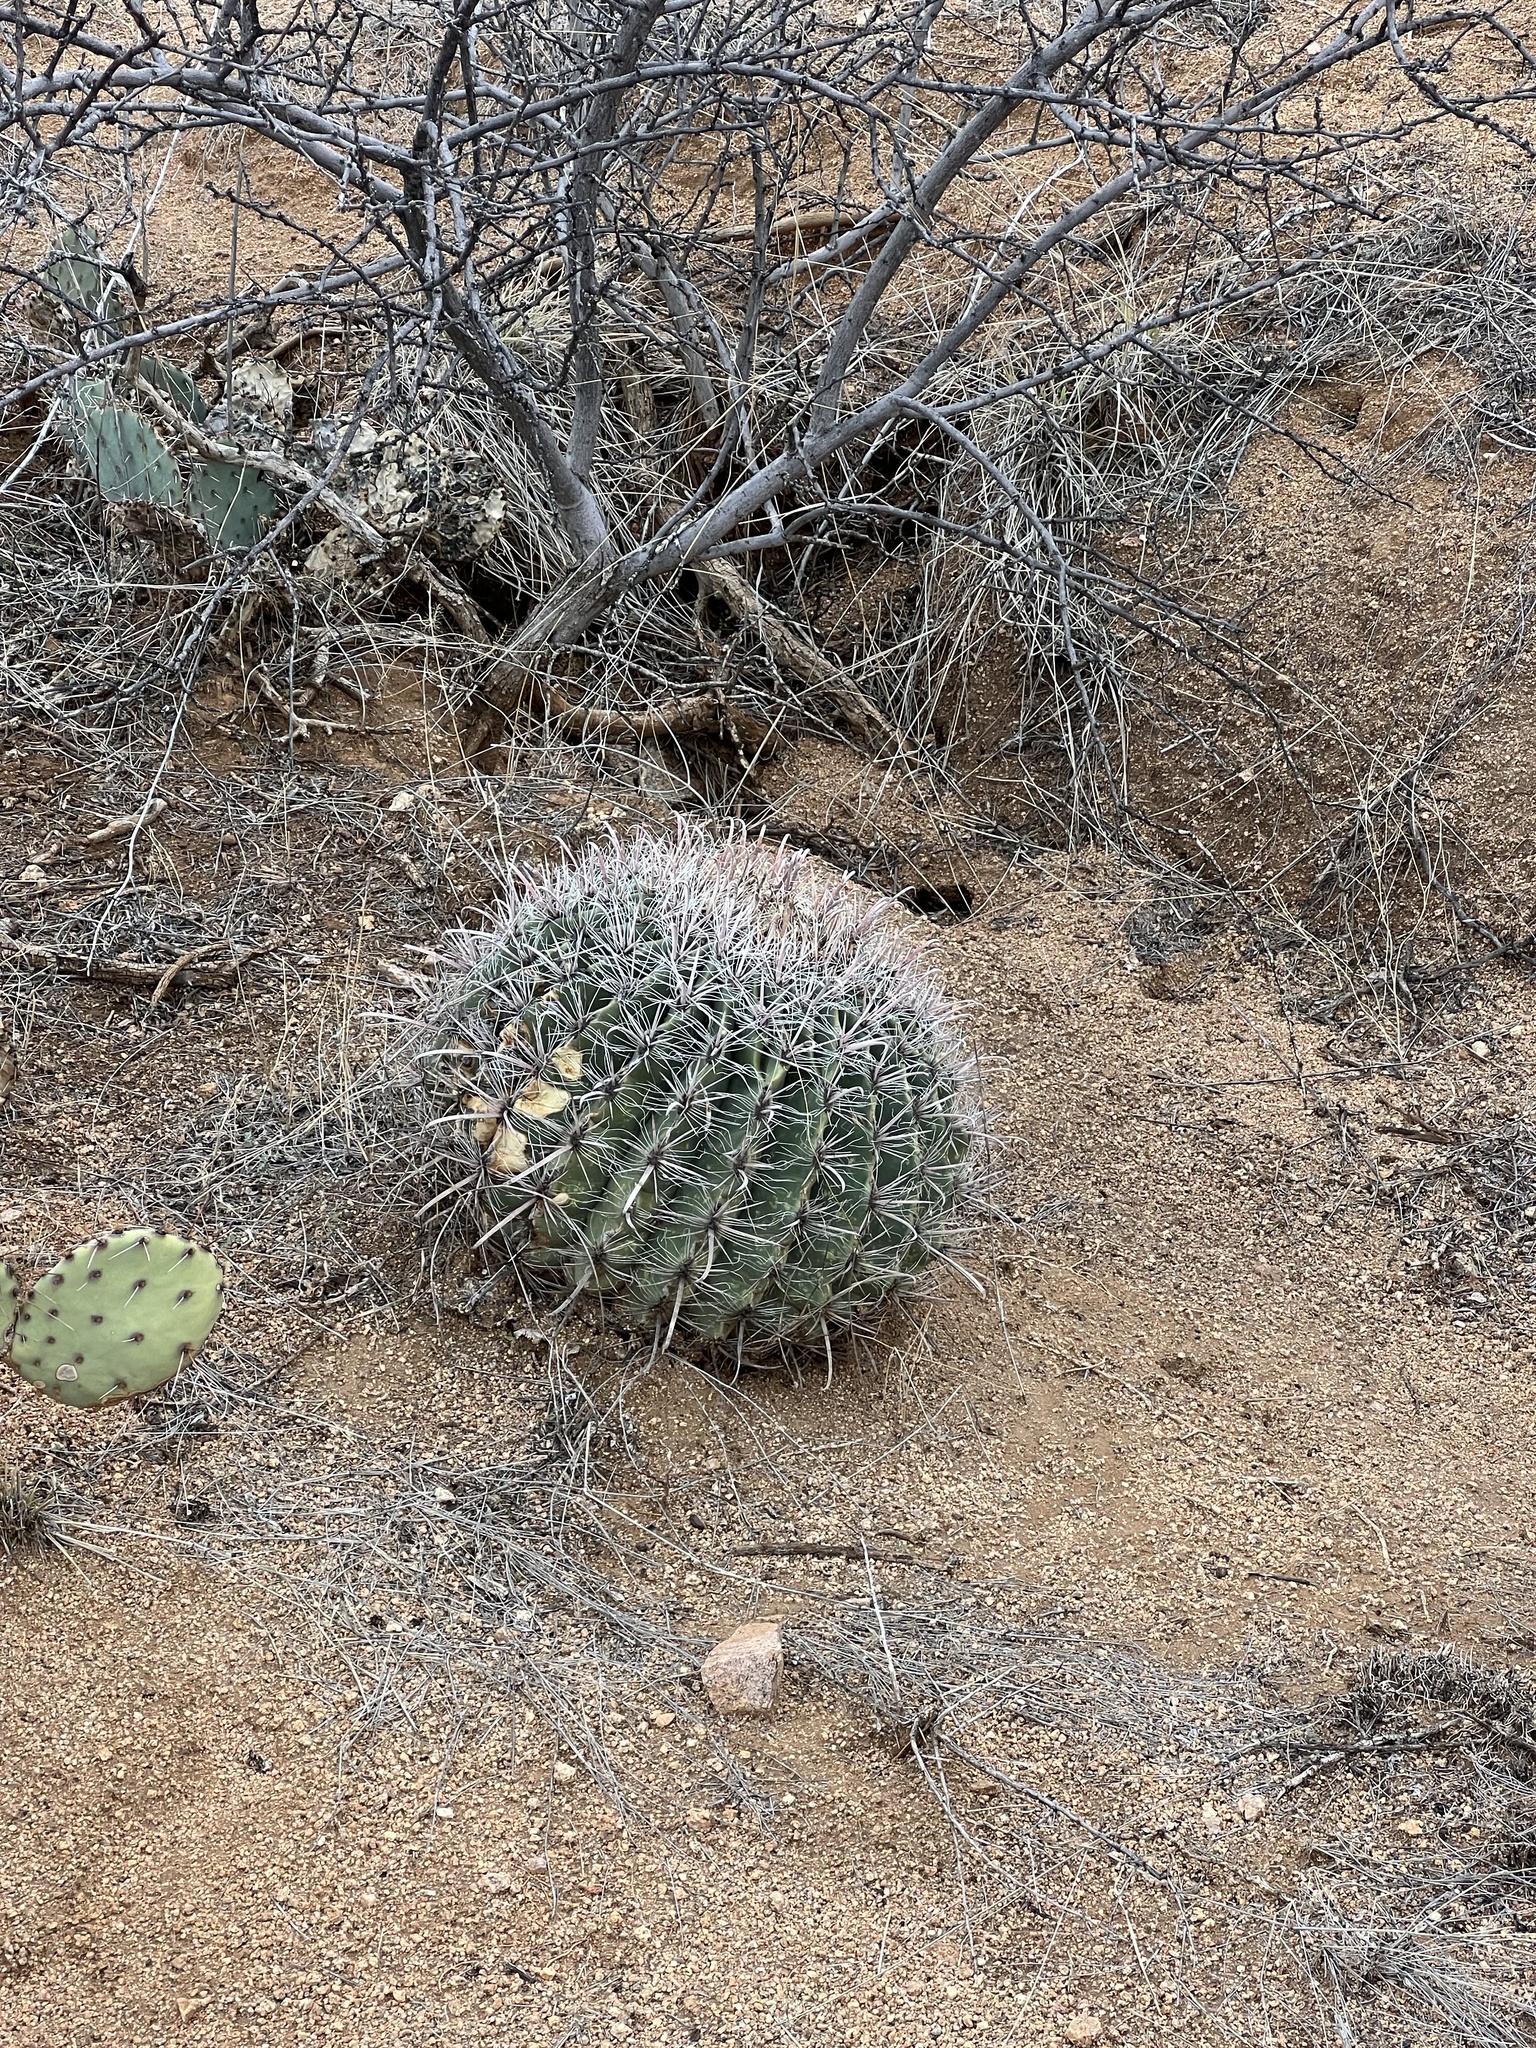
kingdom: Plantae
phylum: Tracheophyta
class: Magnoliopsida
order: Caryophyllales
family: Cactaceae
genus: Ferocactus
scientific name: Ferocactus wislizeni
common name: Candy barrel cactus
